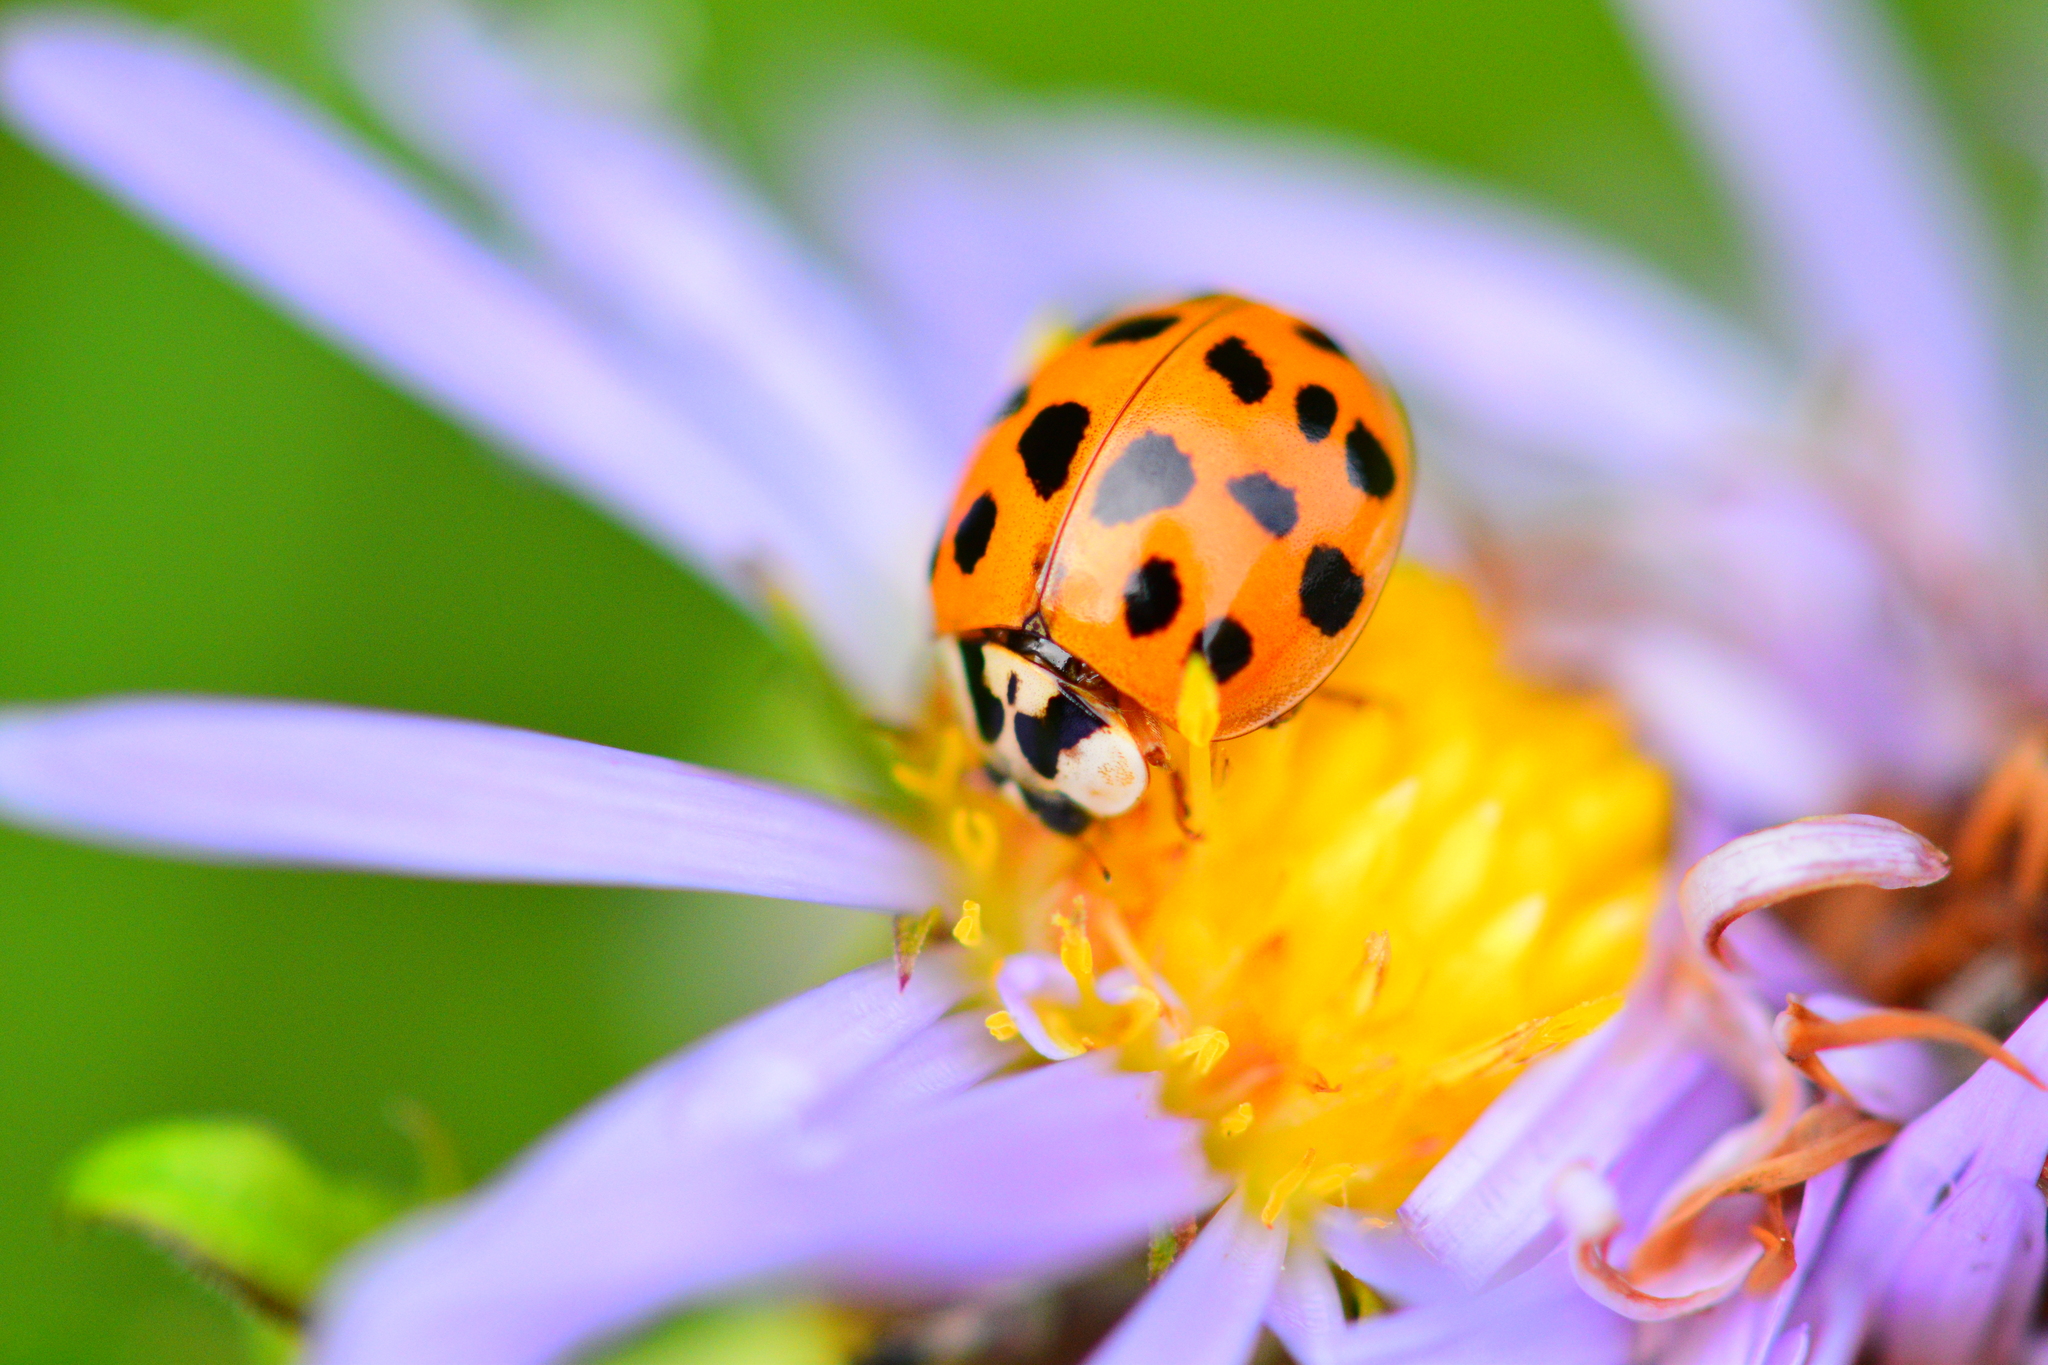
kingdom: Animalia
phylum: Arthropoda
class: Insecta
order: Coleoptera
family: Coccinellidae
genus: Harmonia
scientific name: Harmonia axyridis
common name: Harlequin ladybird
